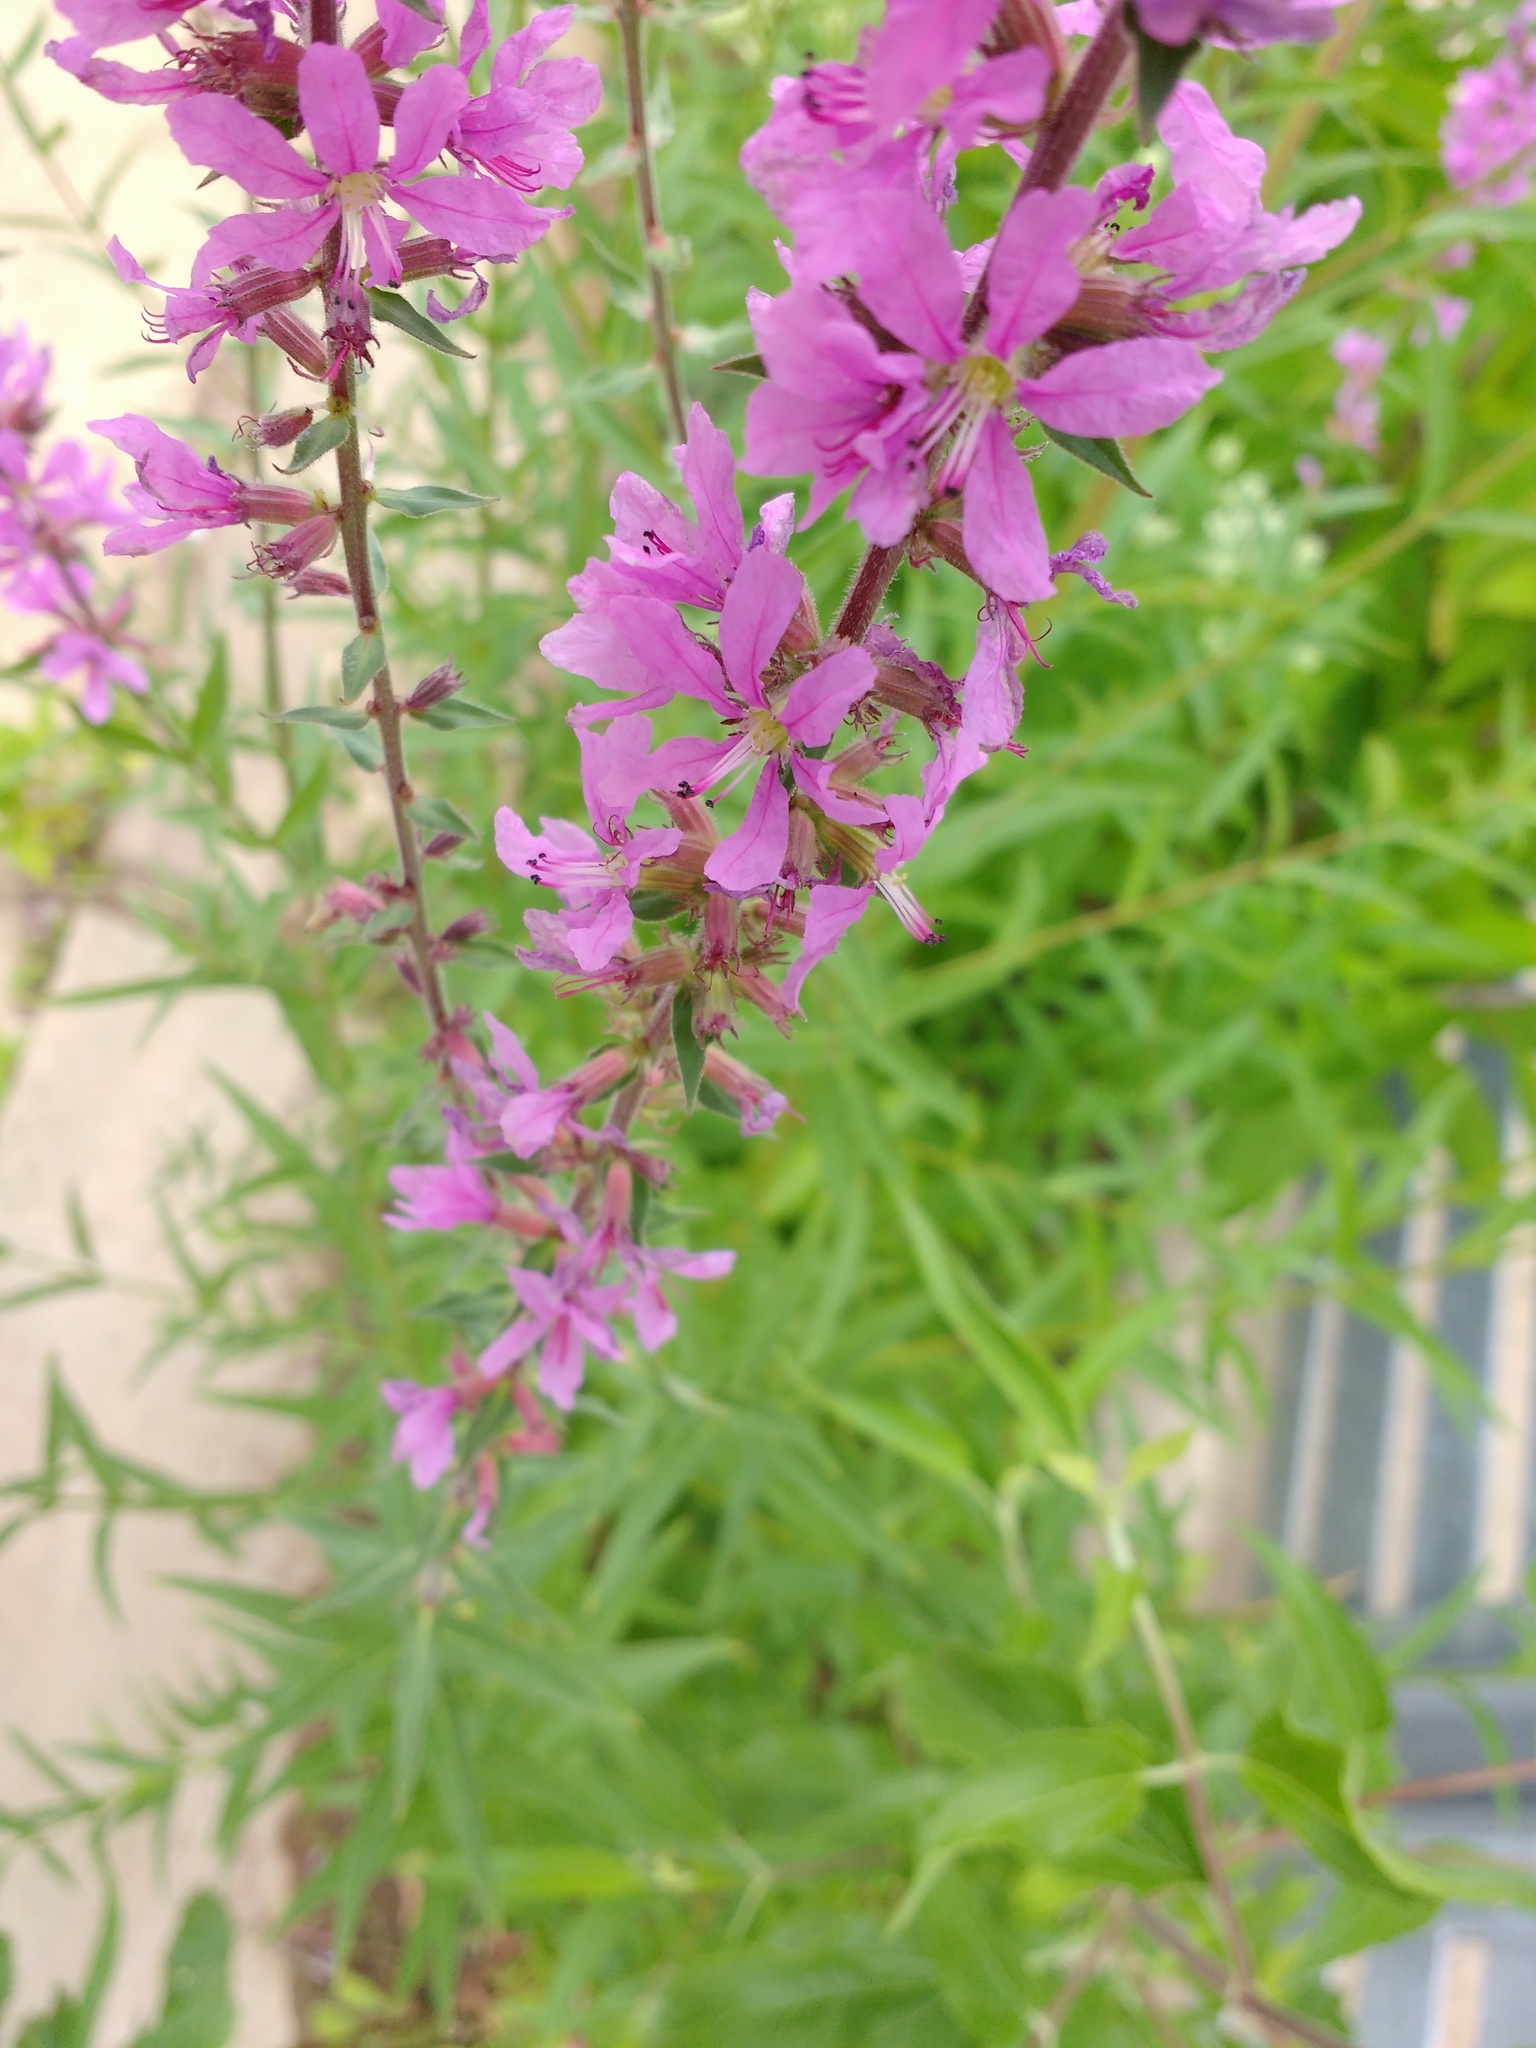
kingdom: Plantae
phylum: Tracheophyta
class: Magnoliopsida
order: Myrtales
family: Lythraceae
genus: Lythrum
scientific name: Lythrum salicaria
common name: Purple loosestrife
